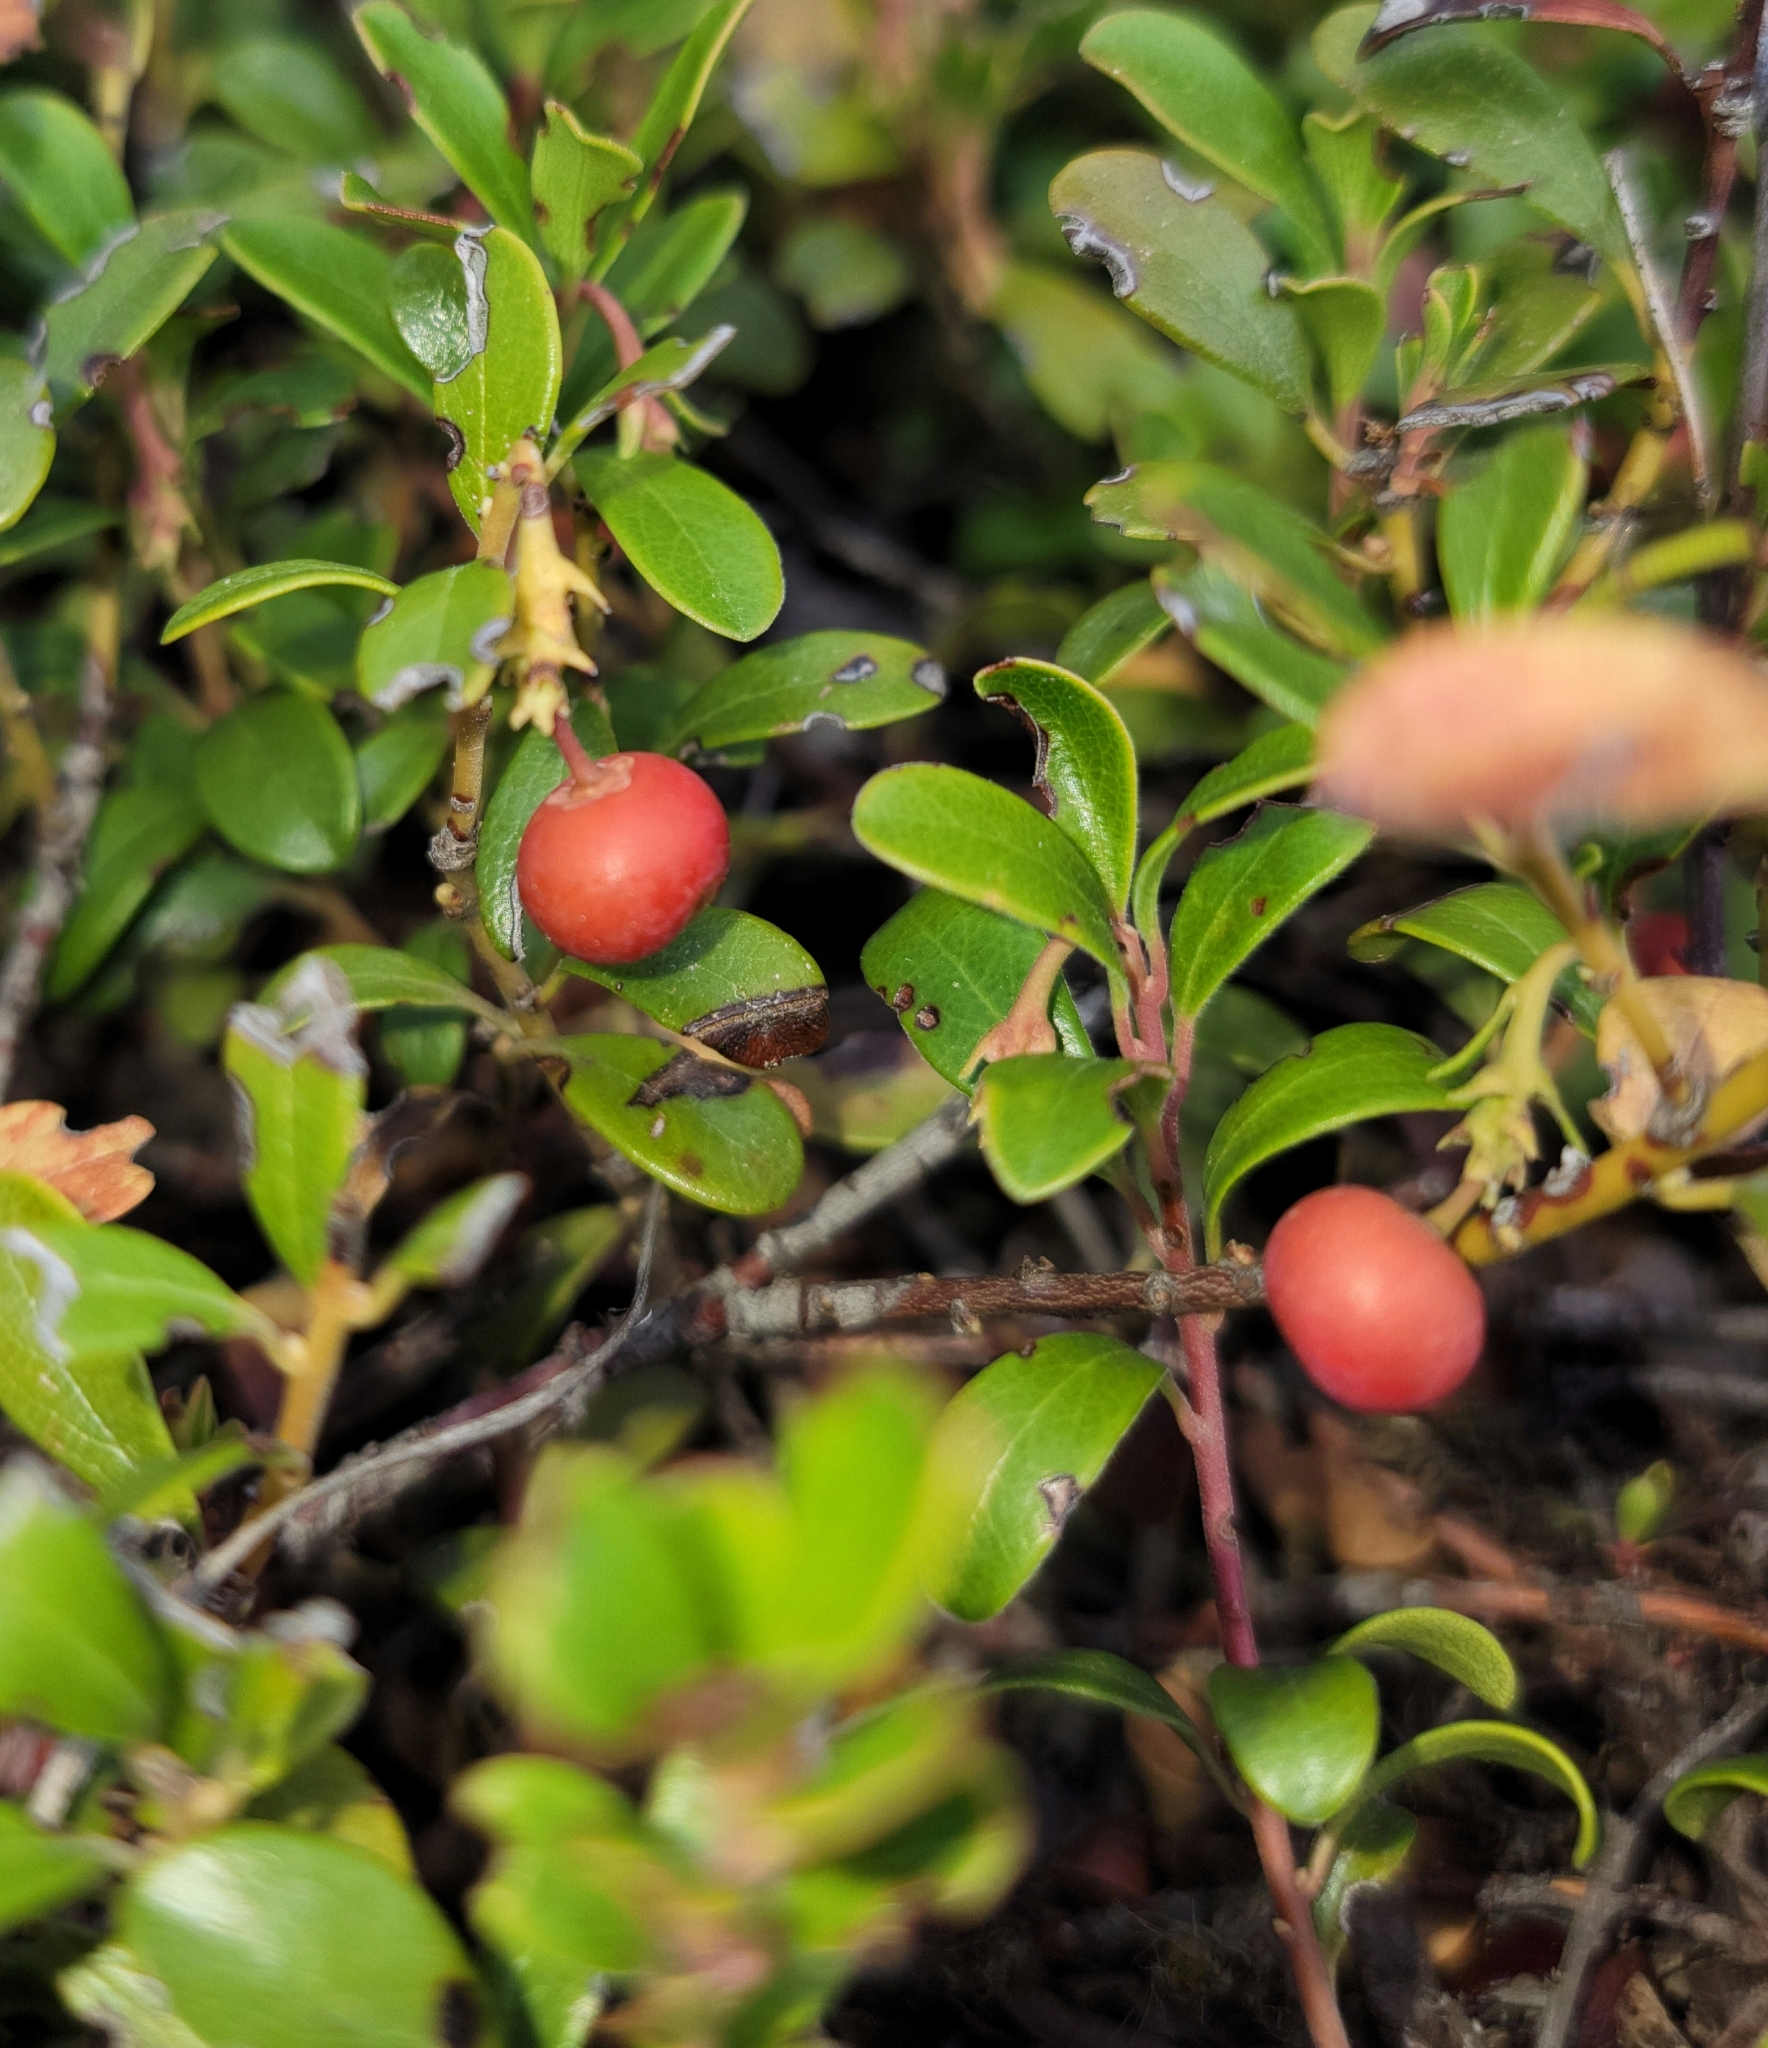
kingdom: Plantae
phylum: Tracheophyta
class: Magnoliopsida
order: Ericales
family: Ericaceae
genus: Arctostaphylos
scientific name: Arctostaphylos uva-ursi
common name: Bearberry
